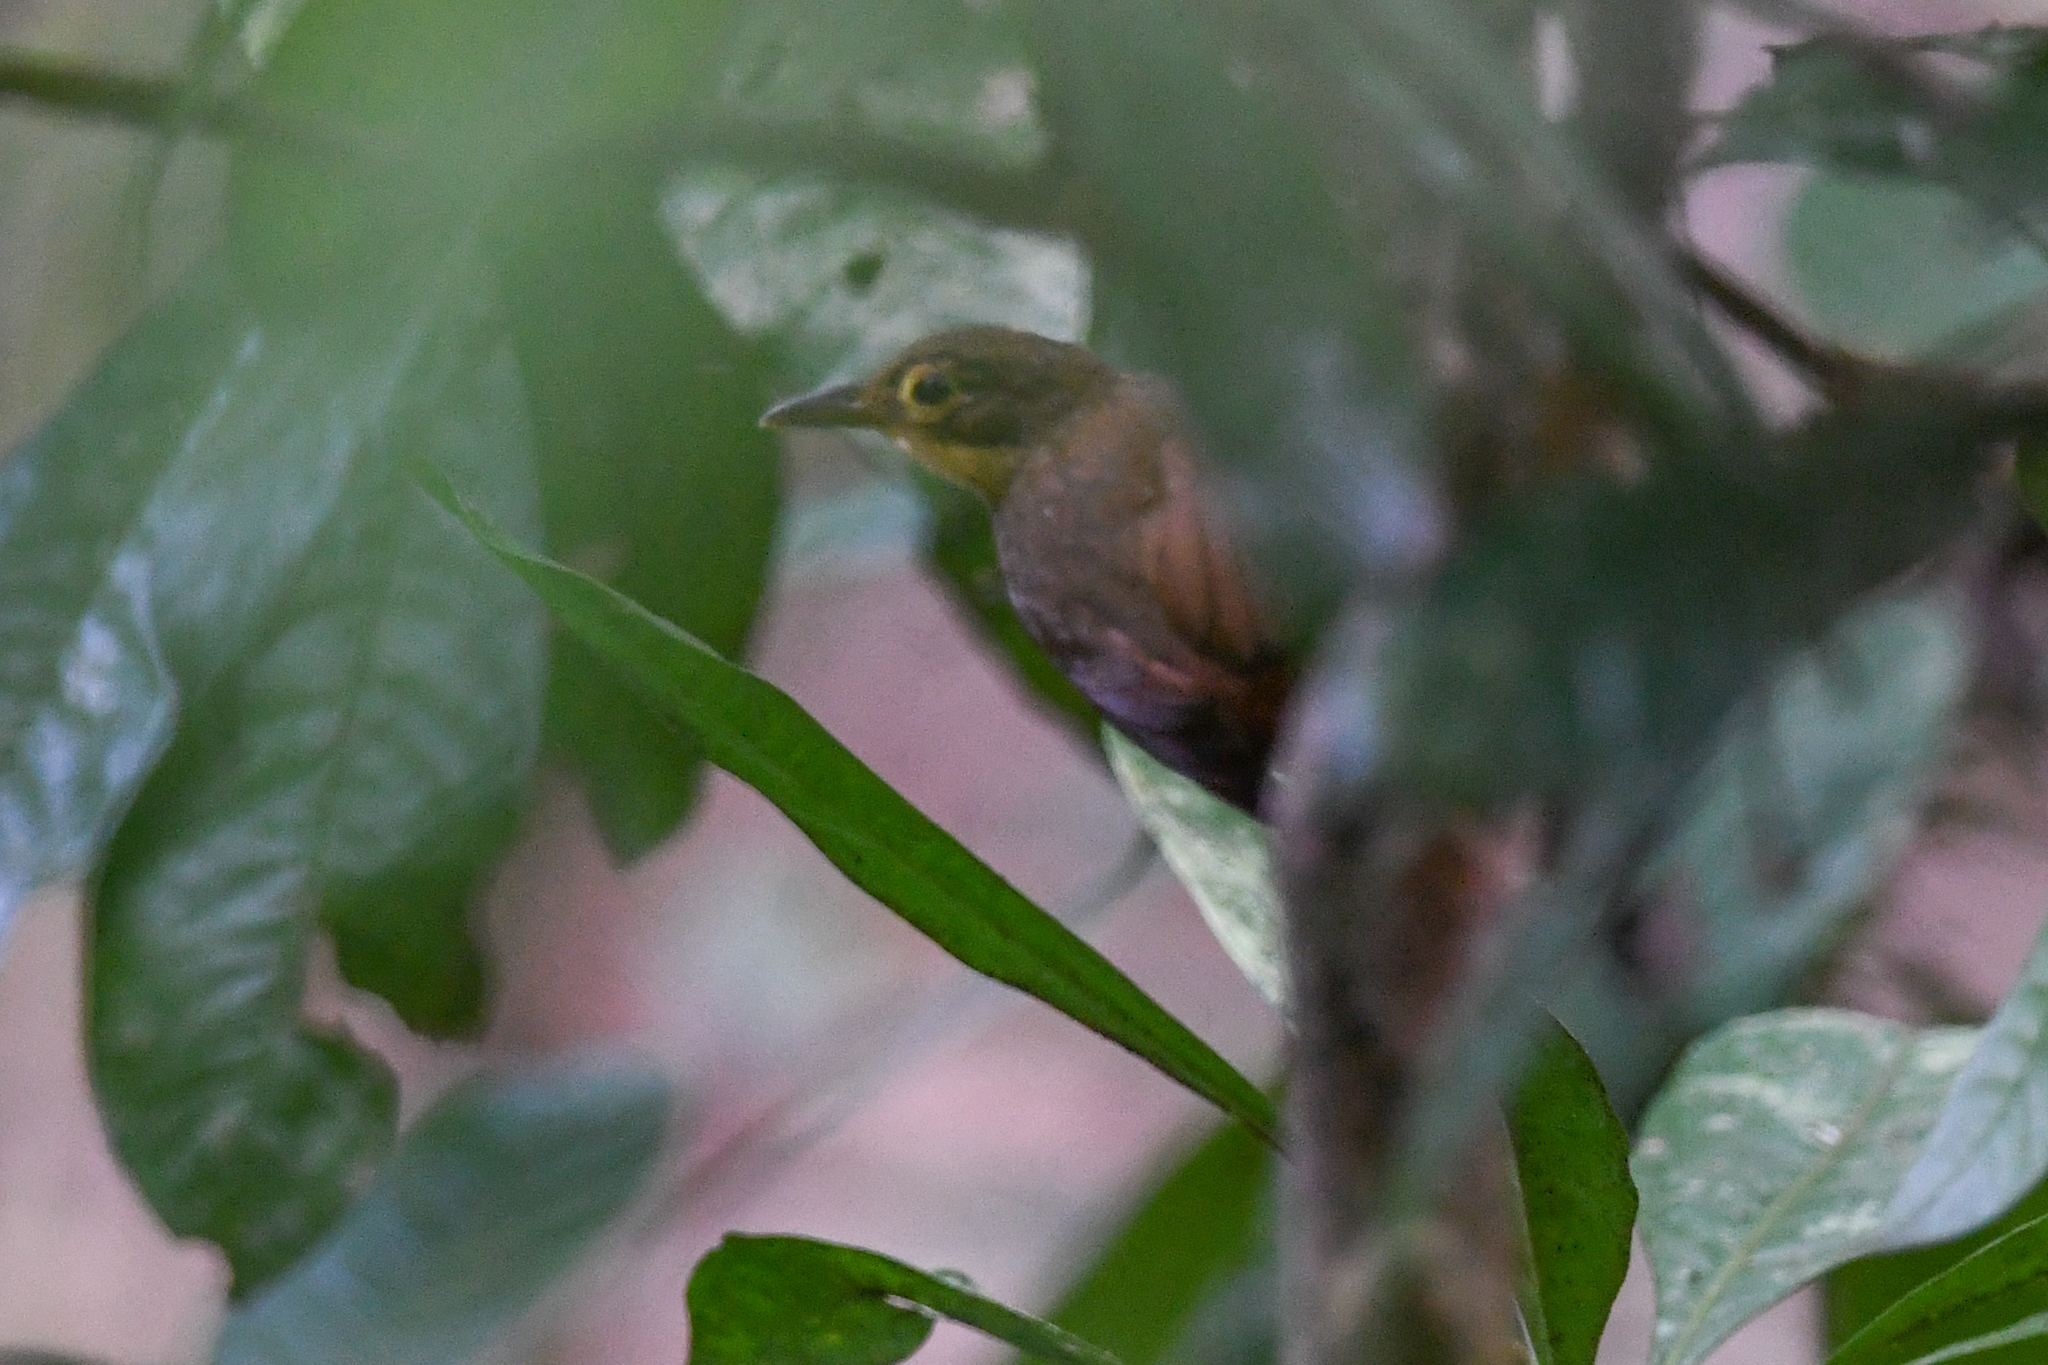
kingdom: Animalia
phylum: Chordata
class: Aves
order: Passeriformes
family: Furnariidae
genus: Automolus
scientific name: Automolus exsertus
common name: Chiriqui foliage-gleaner
